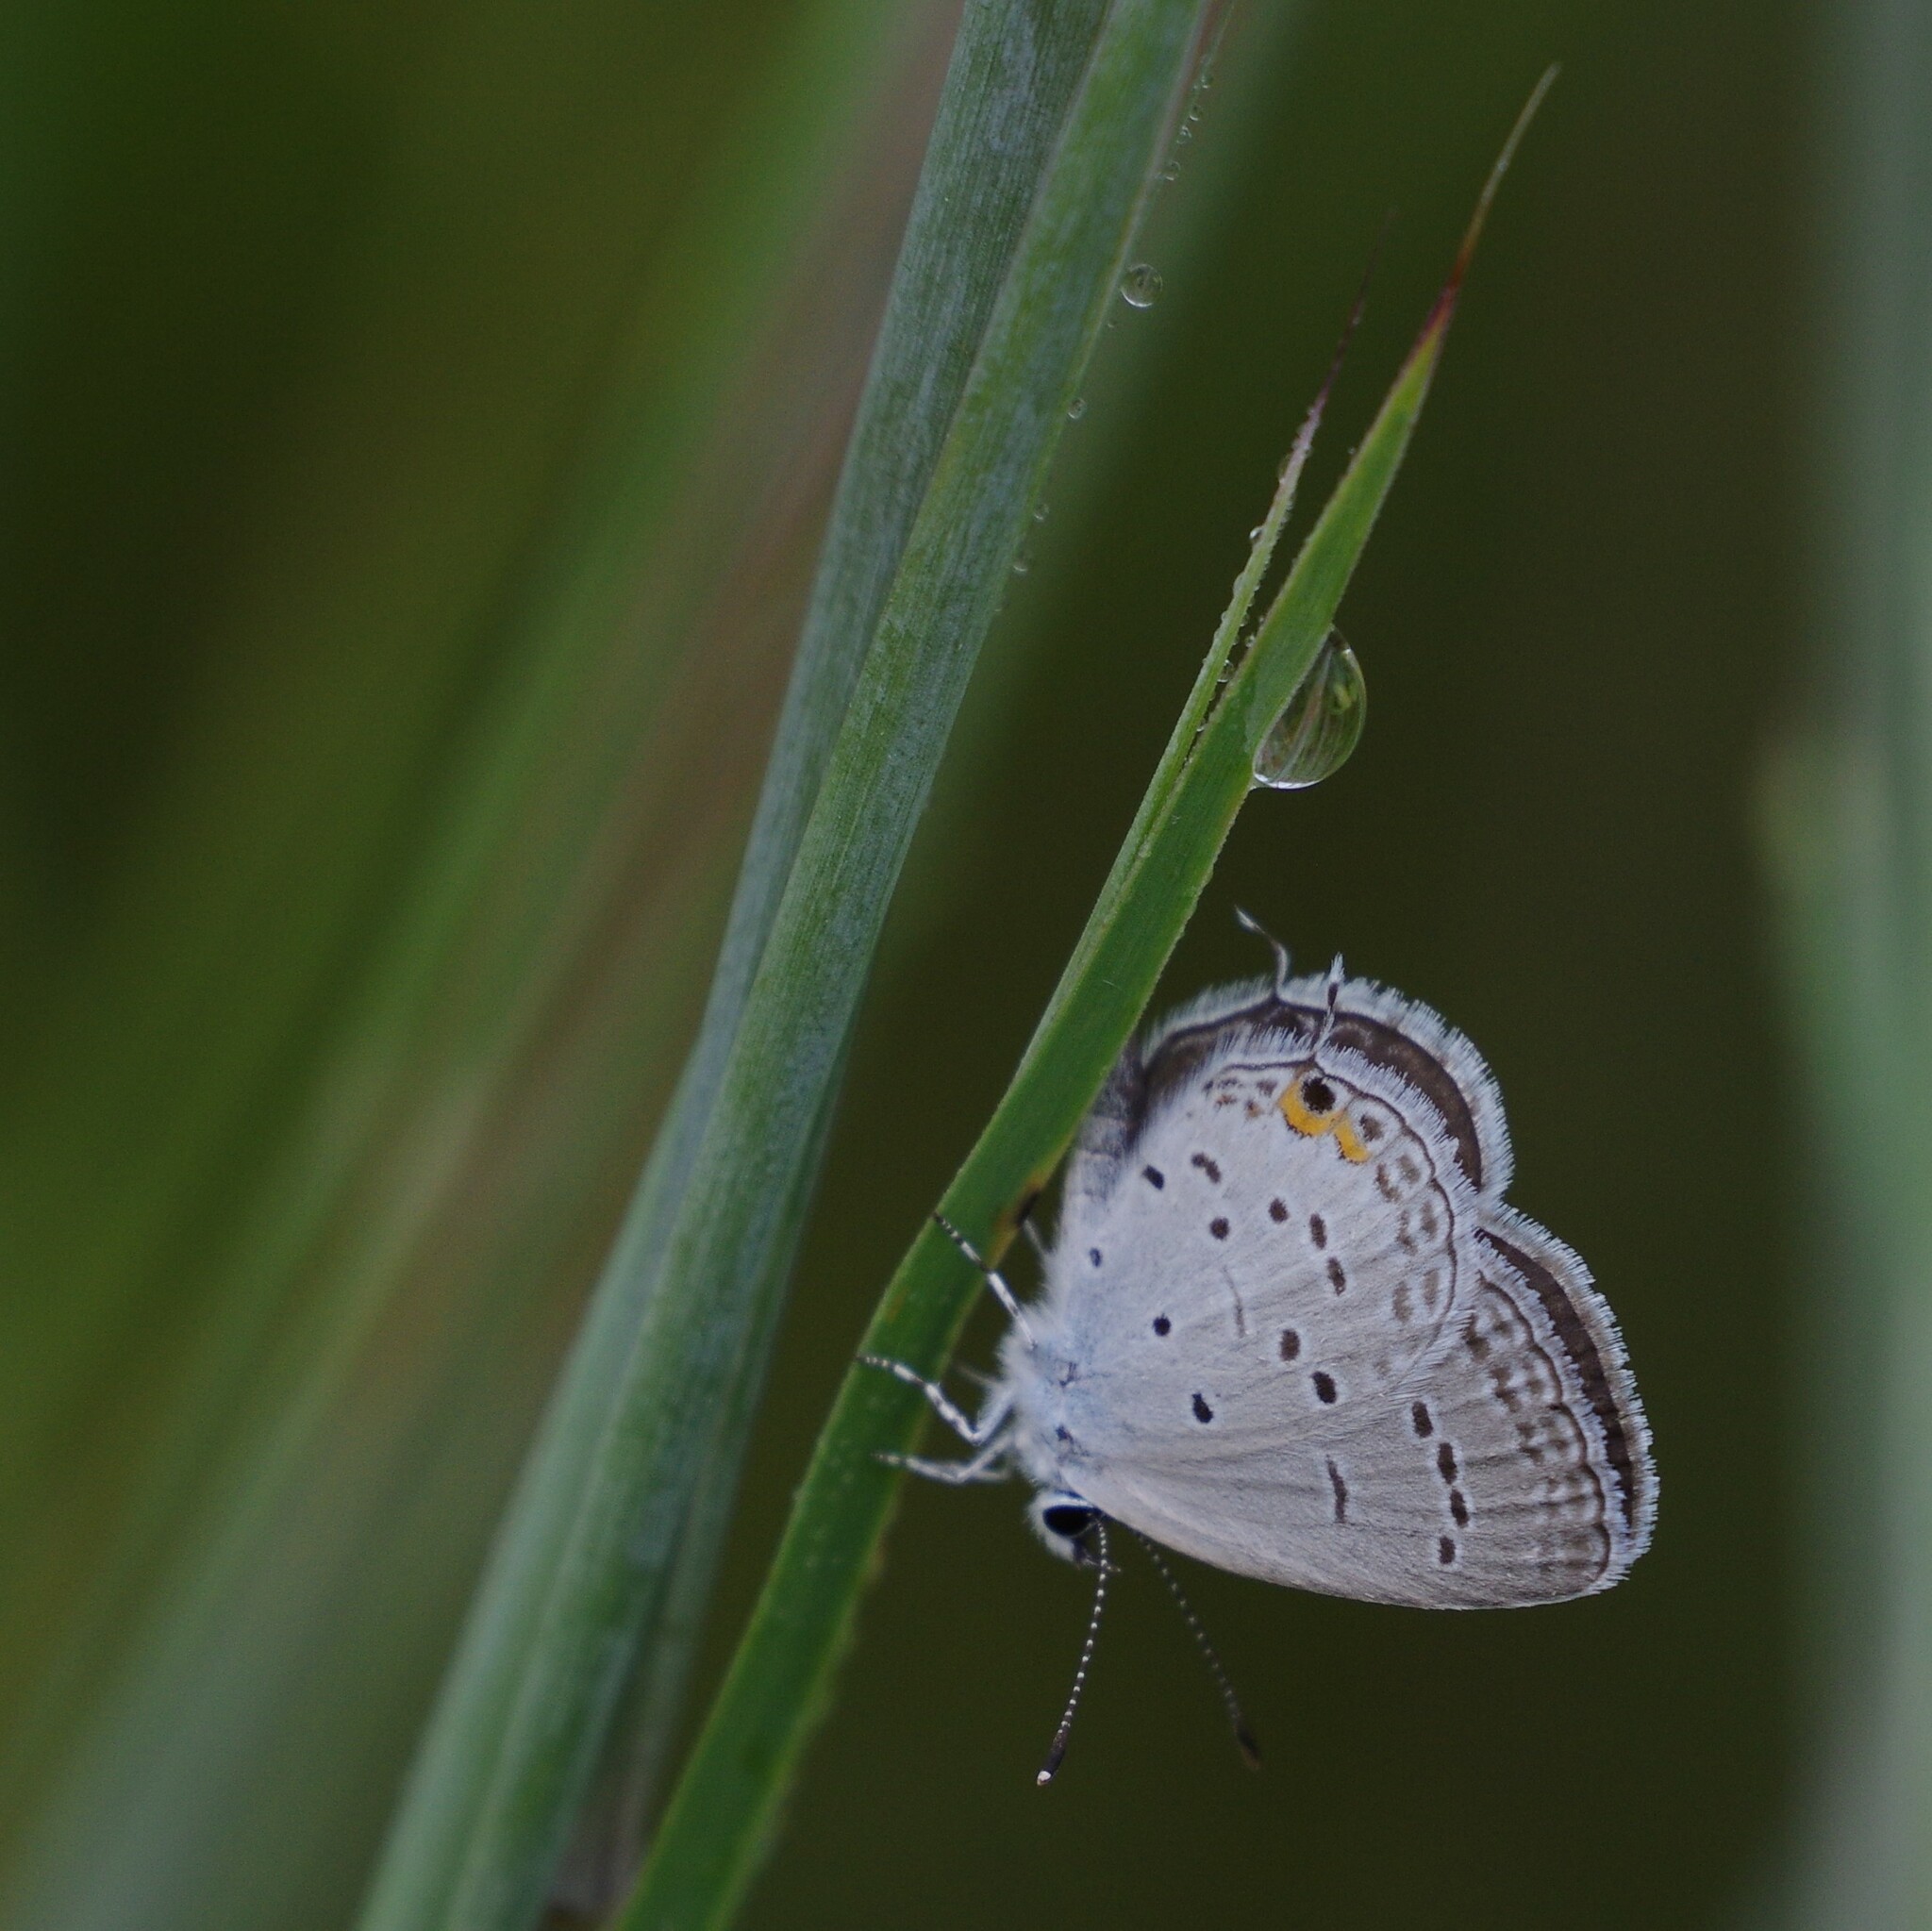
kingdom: Animalia
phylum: Arthropoda
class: Insecta
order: Lepidoptera
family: Lycaenidae
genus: Elkalyce
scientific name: Elkalyce comyntas
